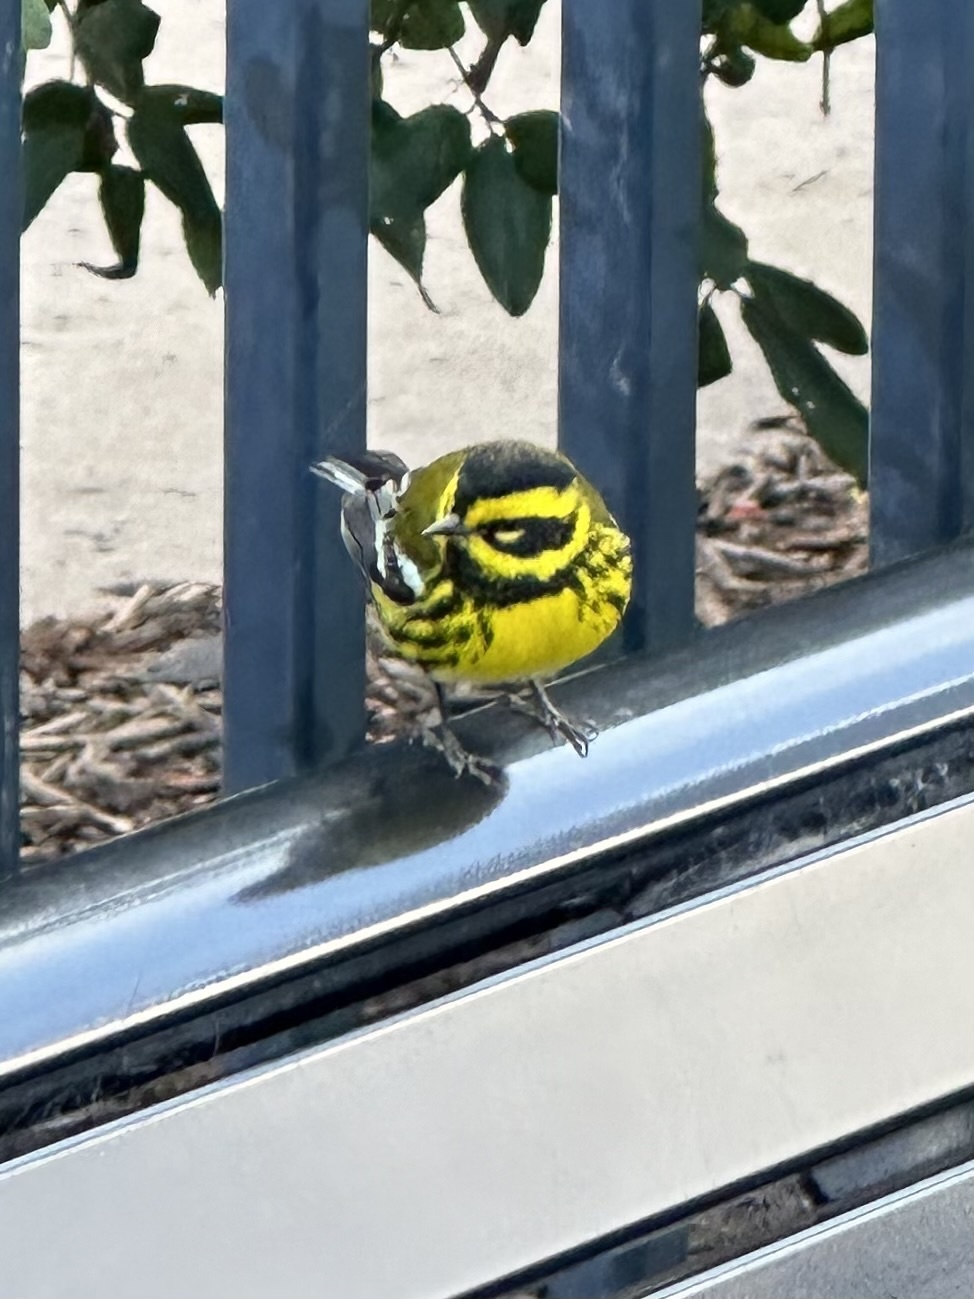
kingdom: Animalia
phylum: Chordata
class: Aves
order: Passeriformes
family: Parulidae
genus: Setophaga
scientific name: Setophaga townsendi
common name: Townsend's warbler
